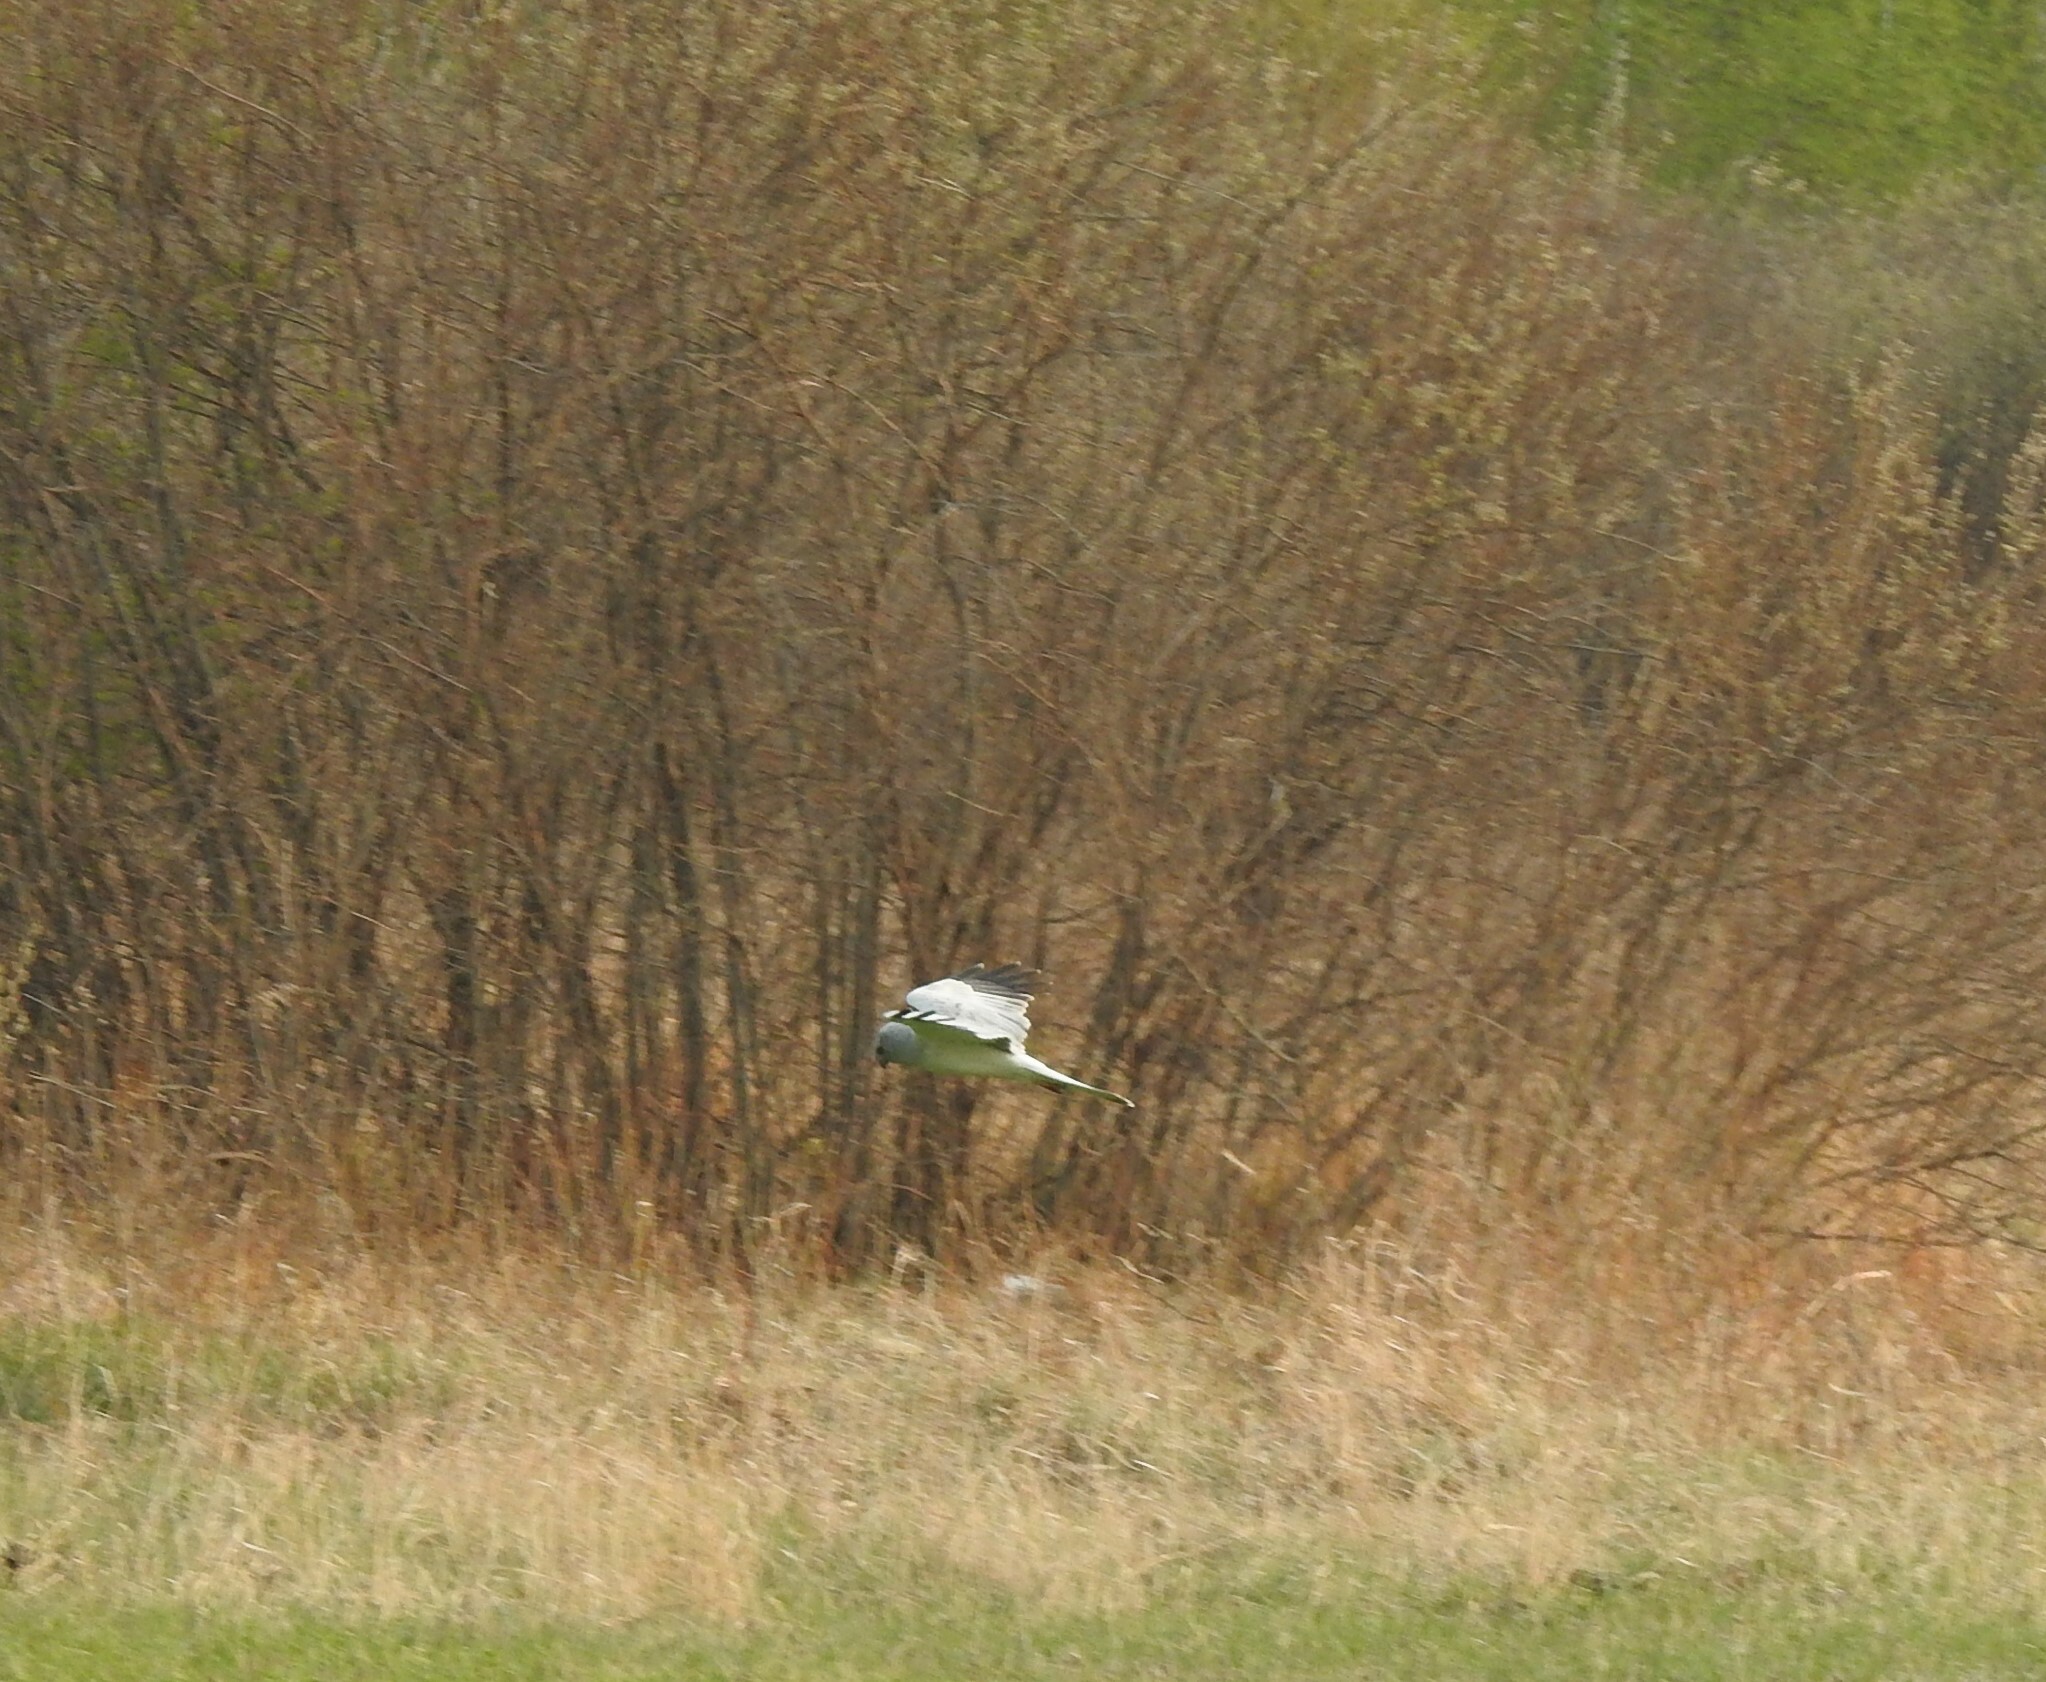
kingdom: Animalia
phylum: Chordata
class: Aves
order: Accipitriformes
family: Accipitridae
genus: Circus
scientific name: Circus cyaneus
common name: Hen harrier
